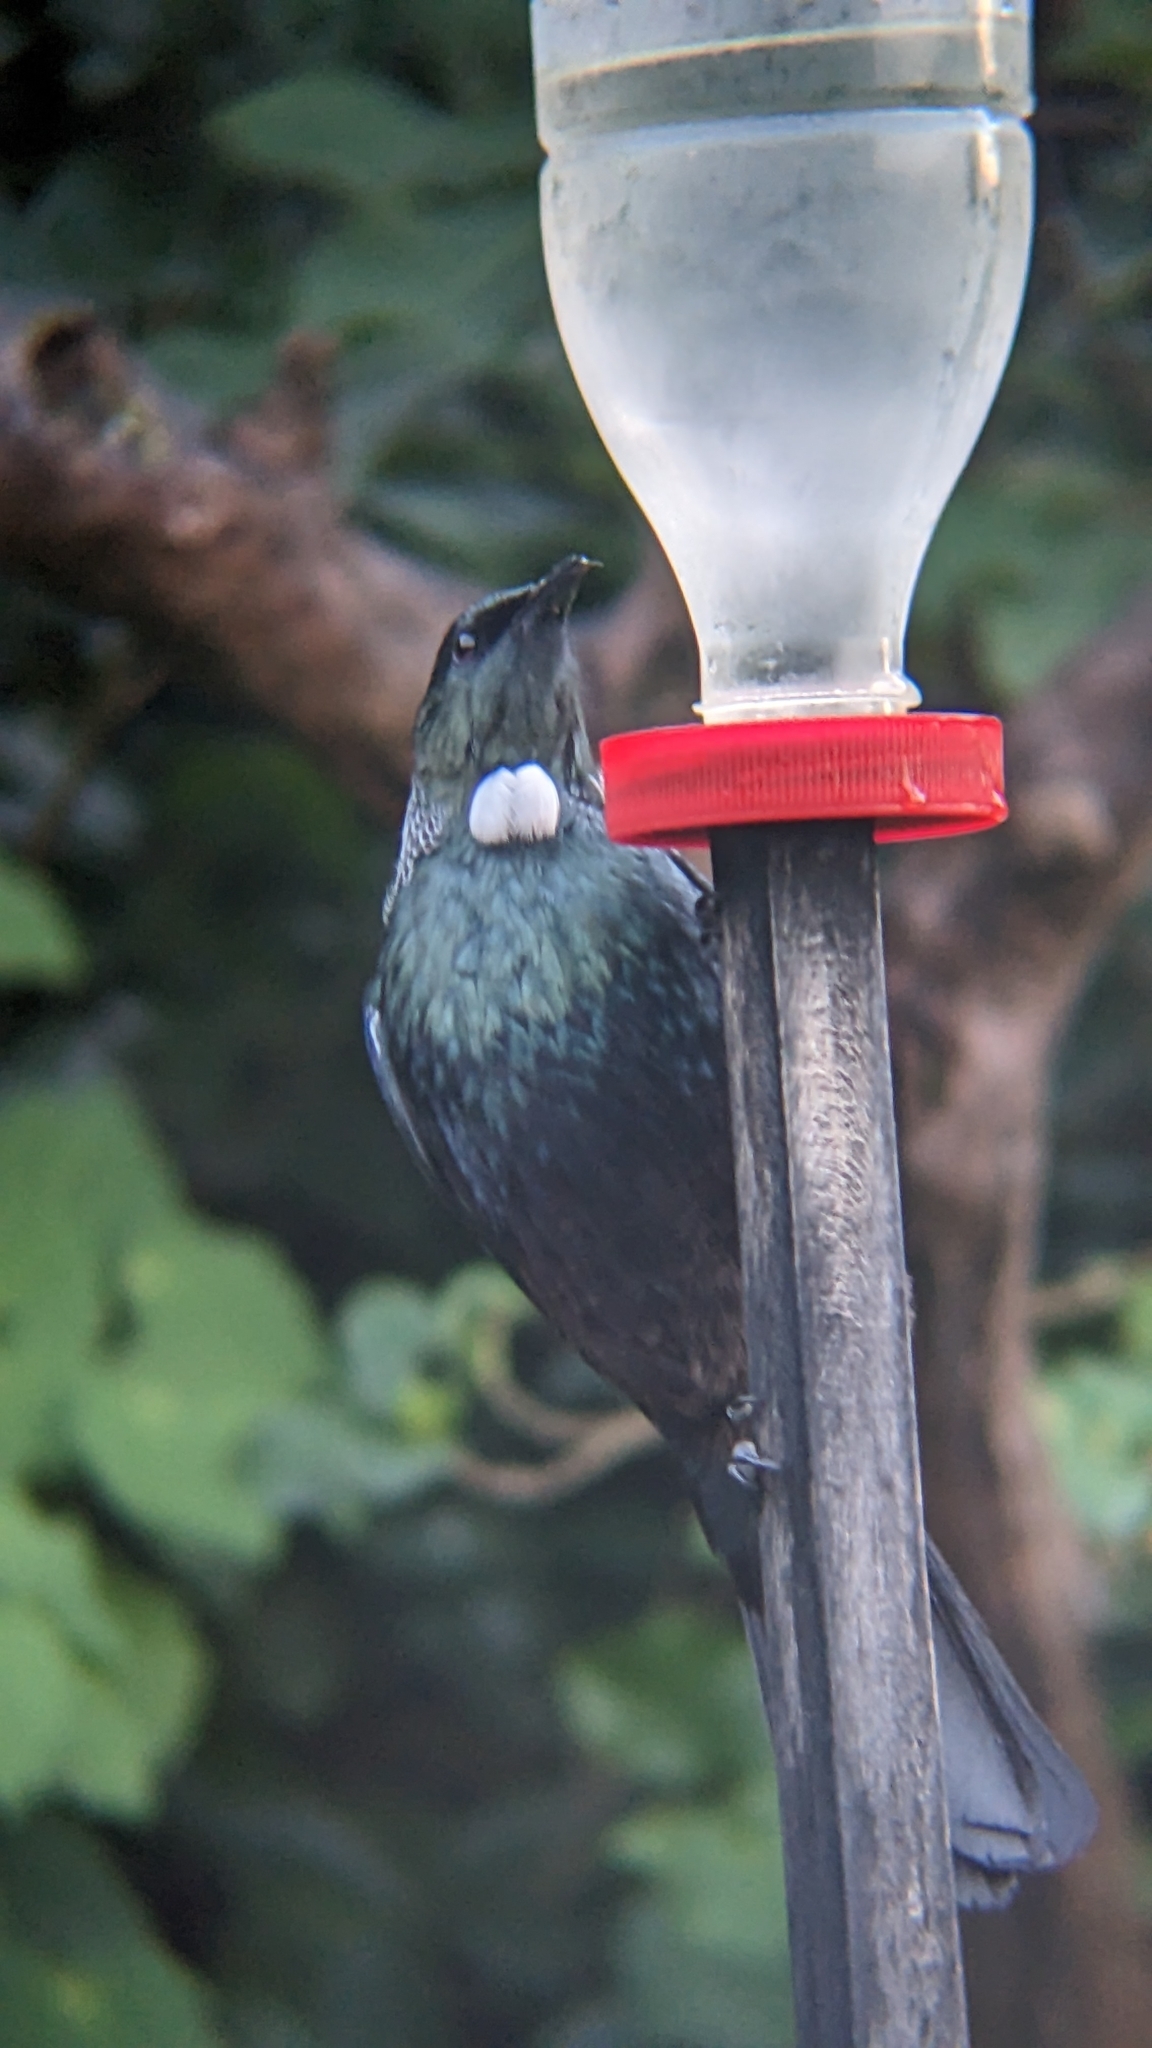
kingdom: Animalia
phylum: Chordata
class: Aves
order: Passeriformes
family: Meliphagidae
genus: Prosthemadera
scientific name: Prosthemadera novaeseelandiae
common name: Tui
